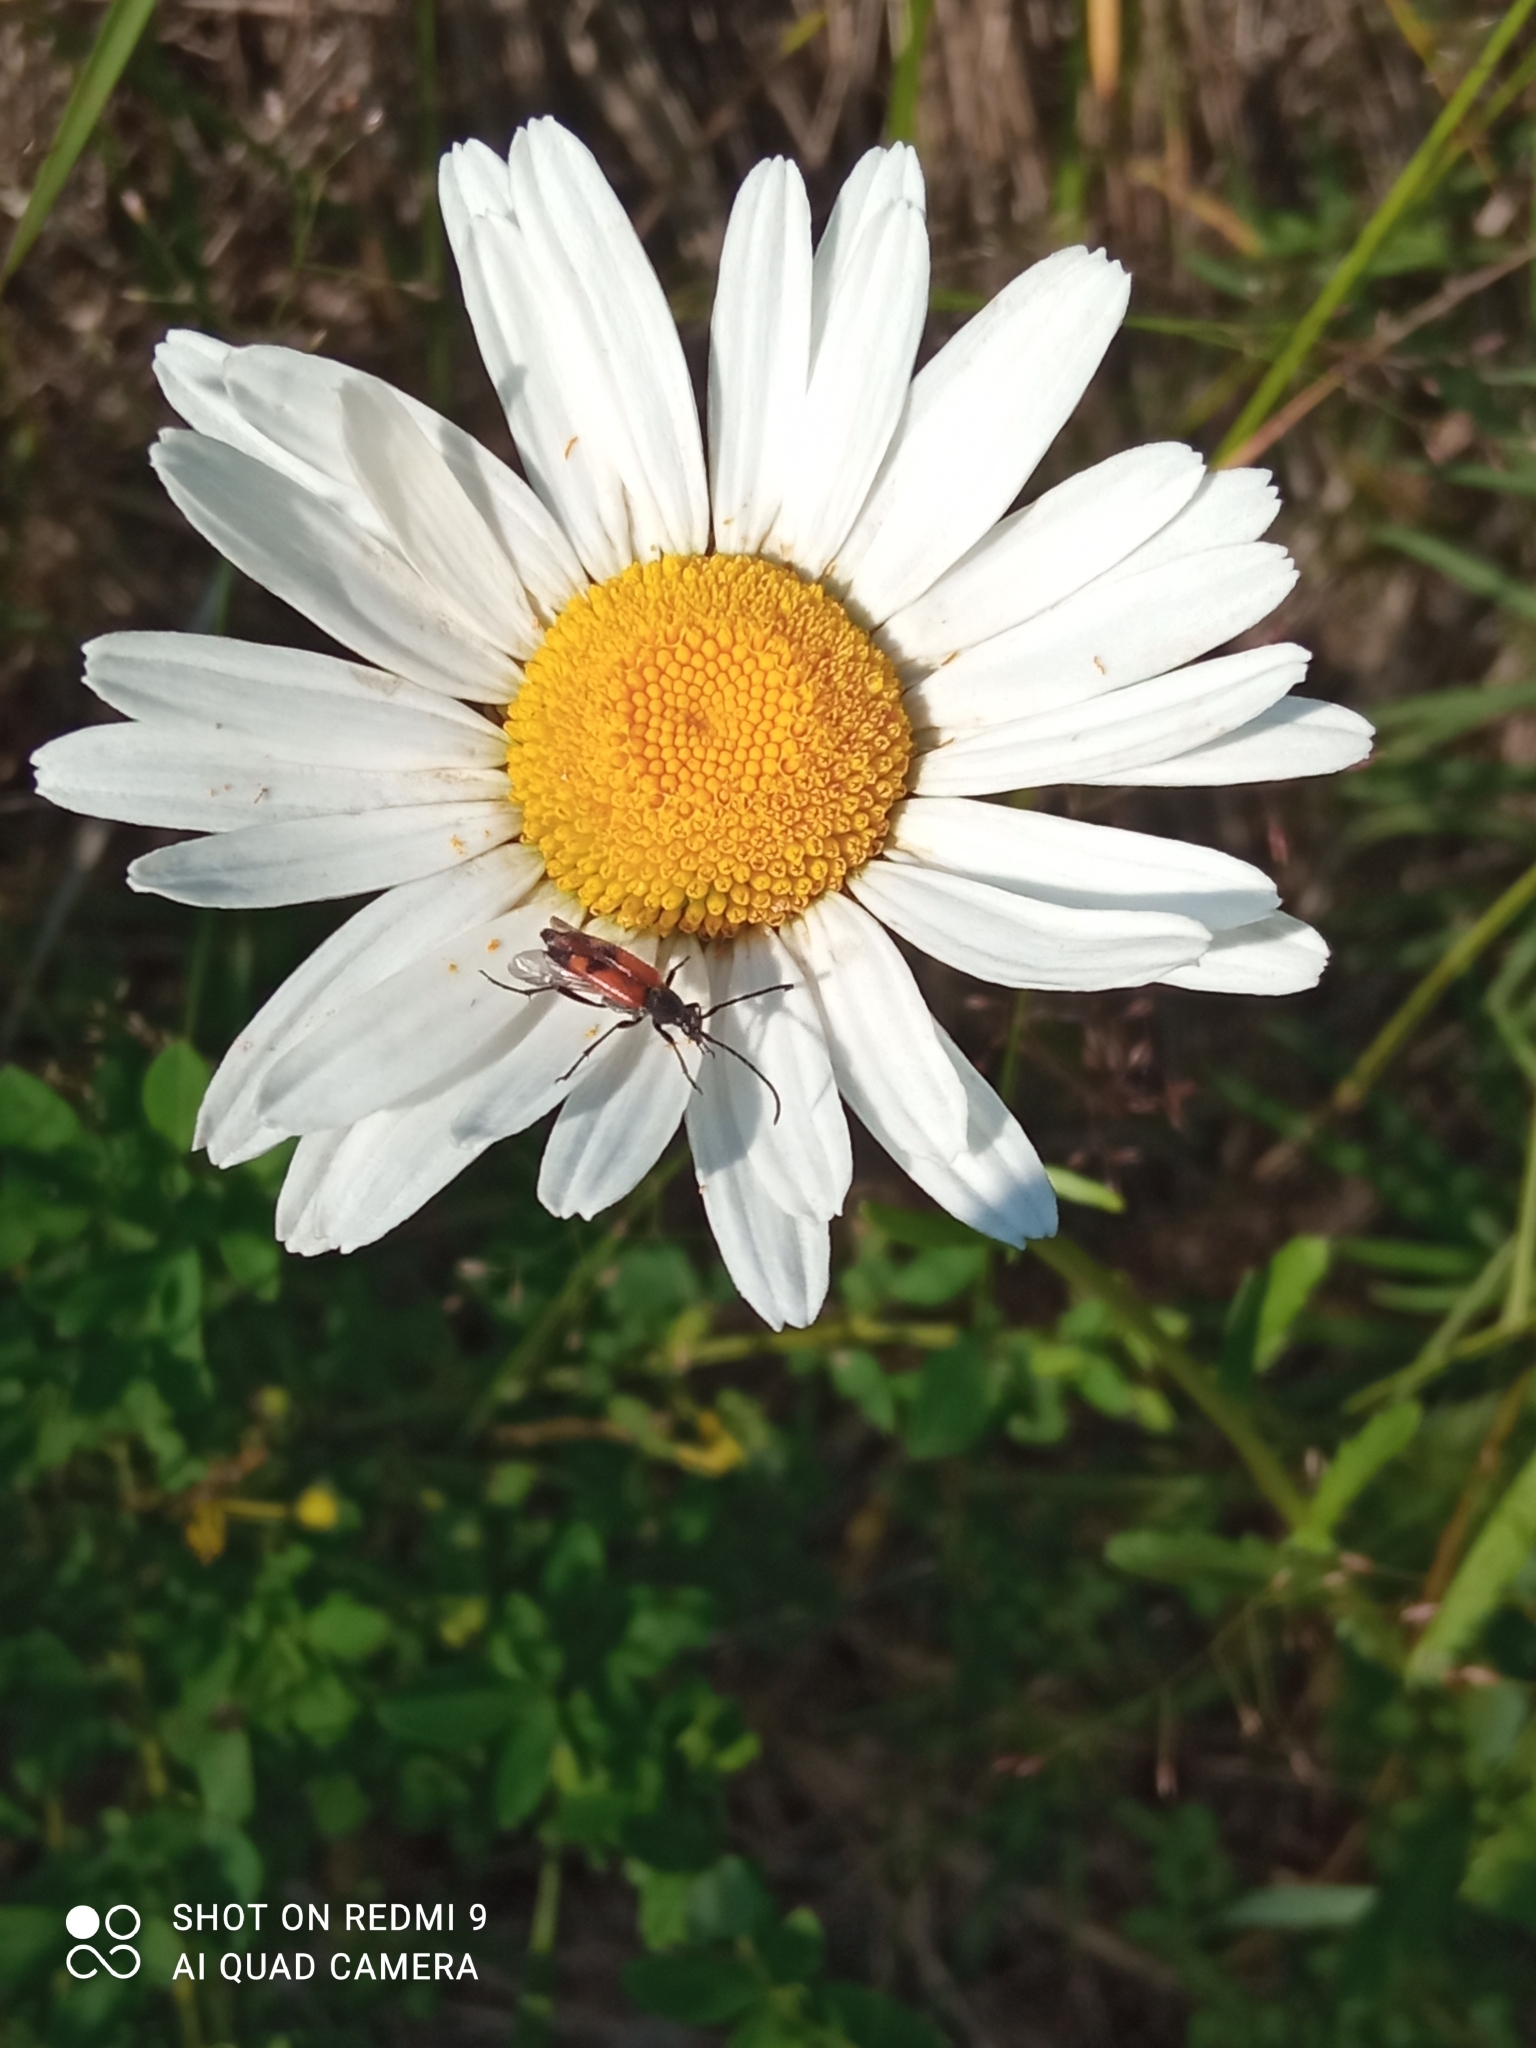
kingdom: Animalia
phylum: Arthropoda
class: Insecta
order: Coleoptera
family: Cerambycidae
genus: Stenurella
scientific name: Stenurella bifasciata
